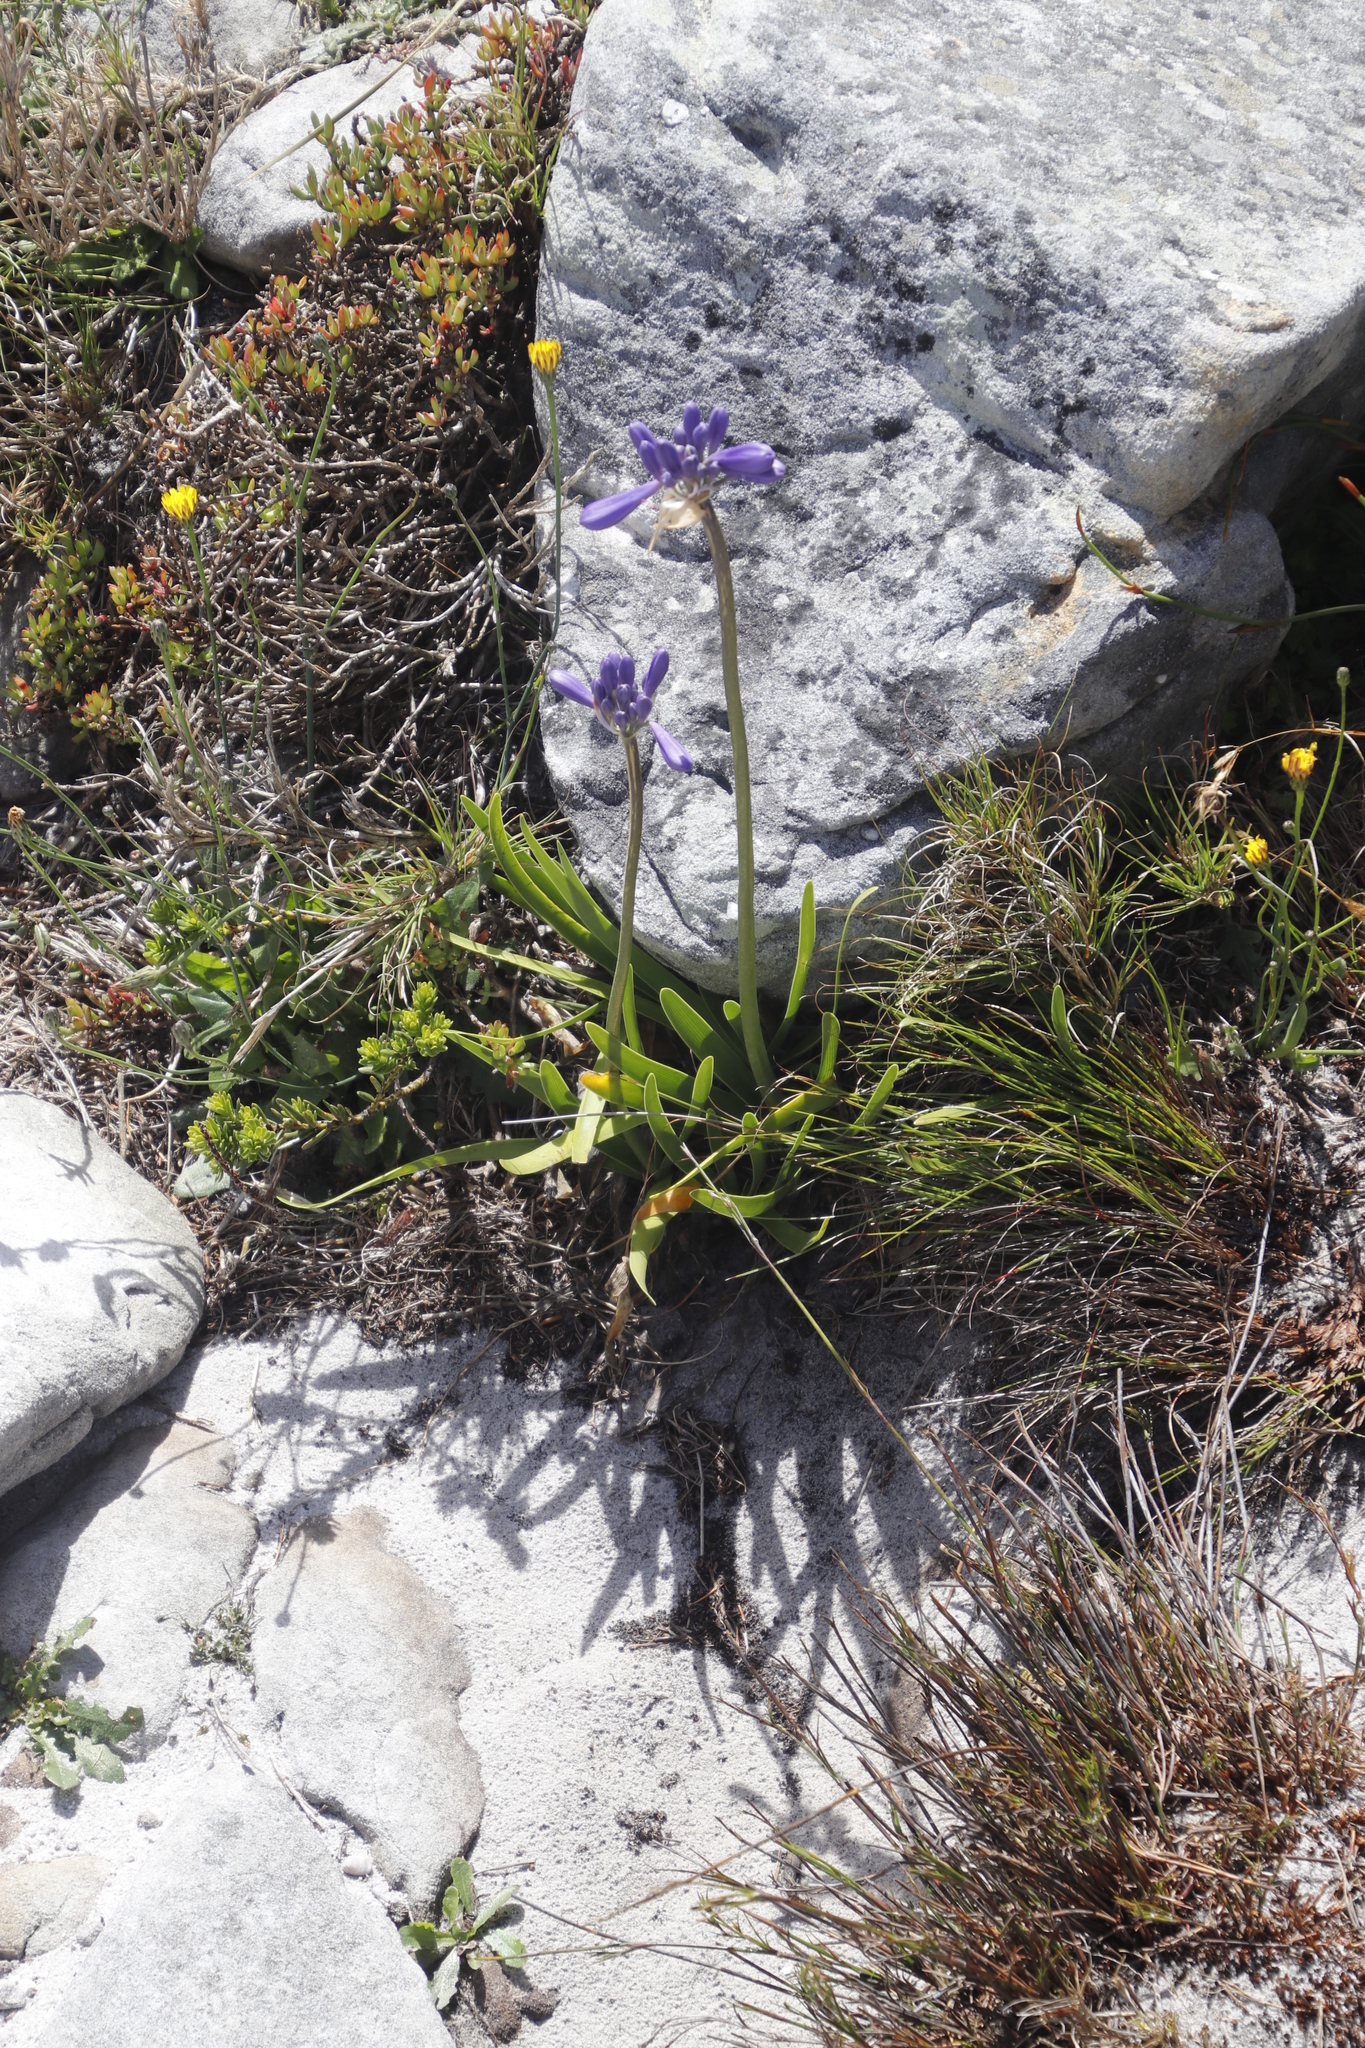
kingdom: Plantae
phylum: Tracheophyta
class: Liliopsida
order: Asparagales
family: Amaryllidaceae
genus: Agapanthus
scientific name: Agapanthus africanus
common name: Lily-of-the-nile
